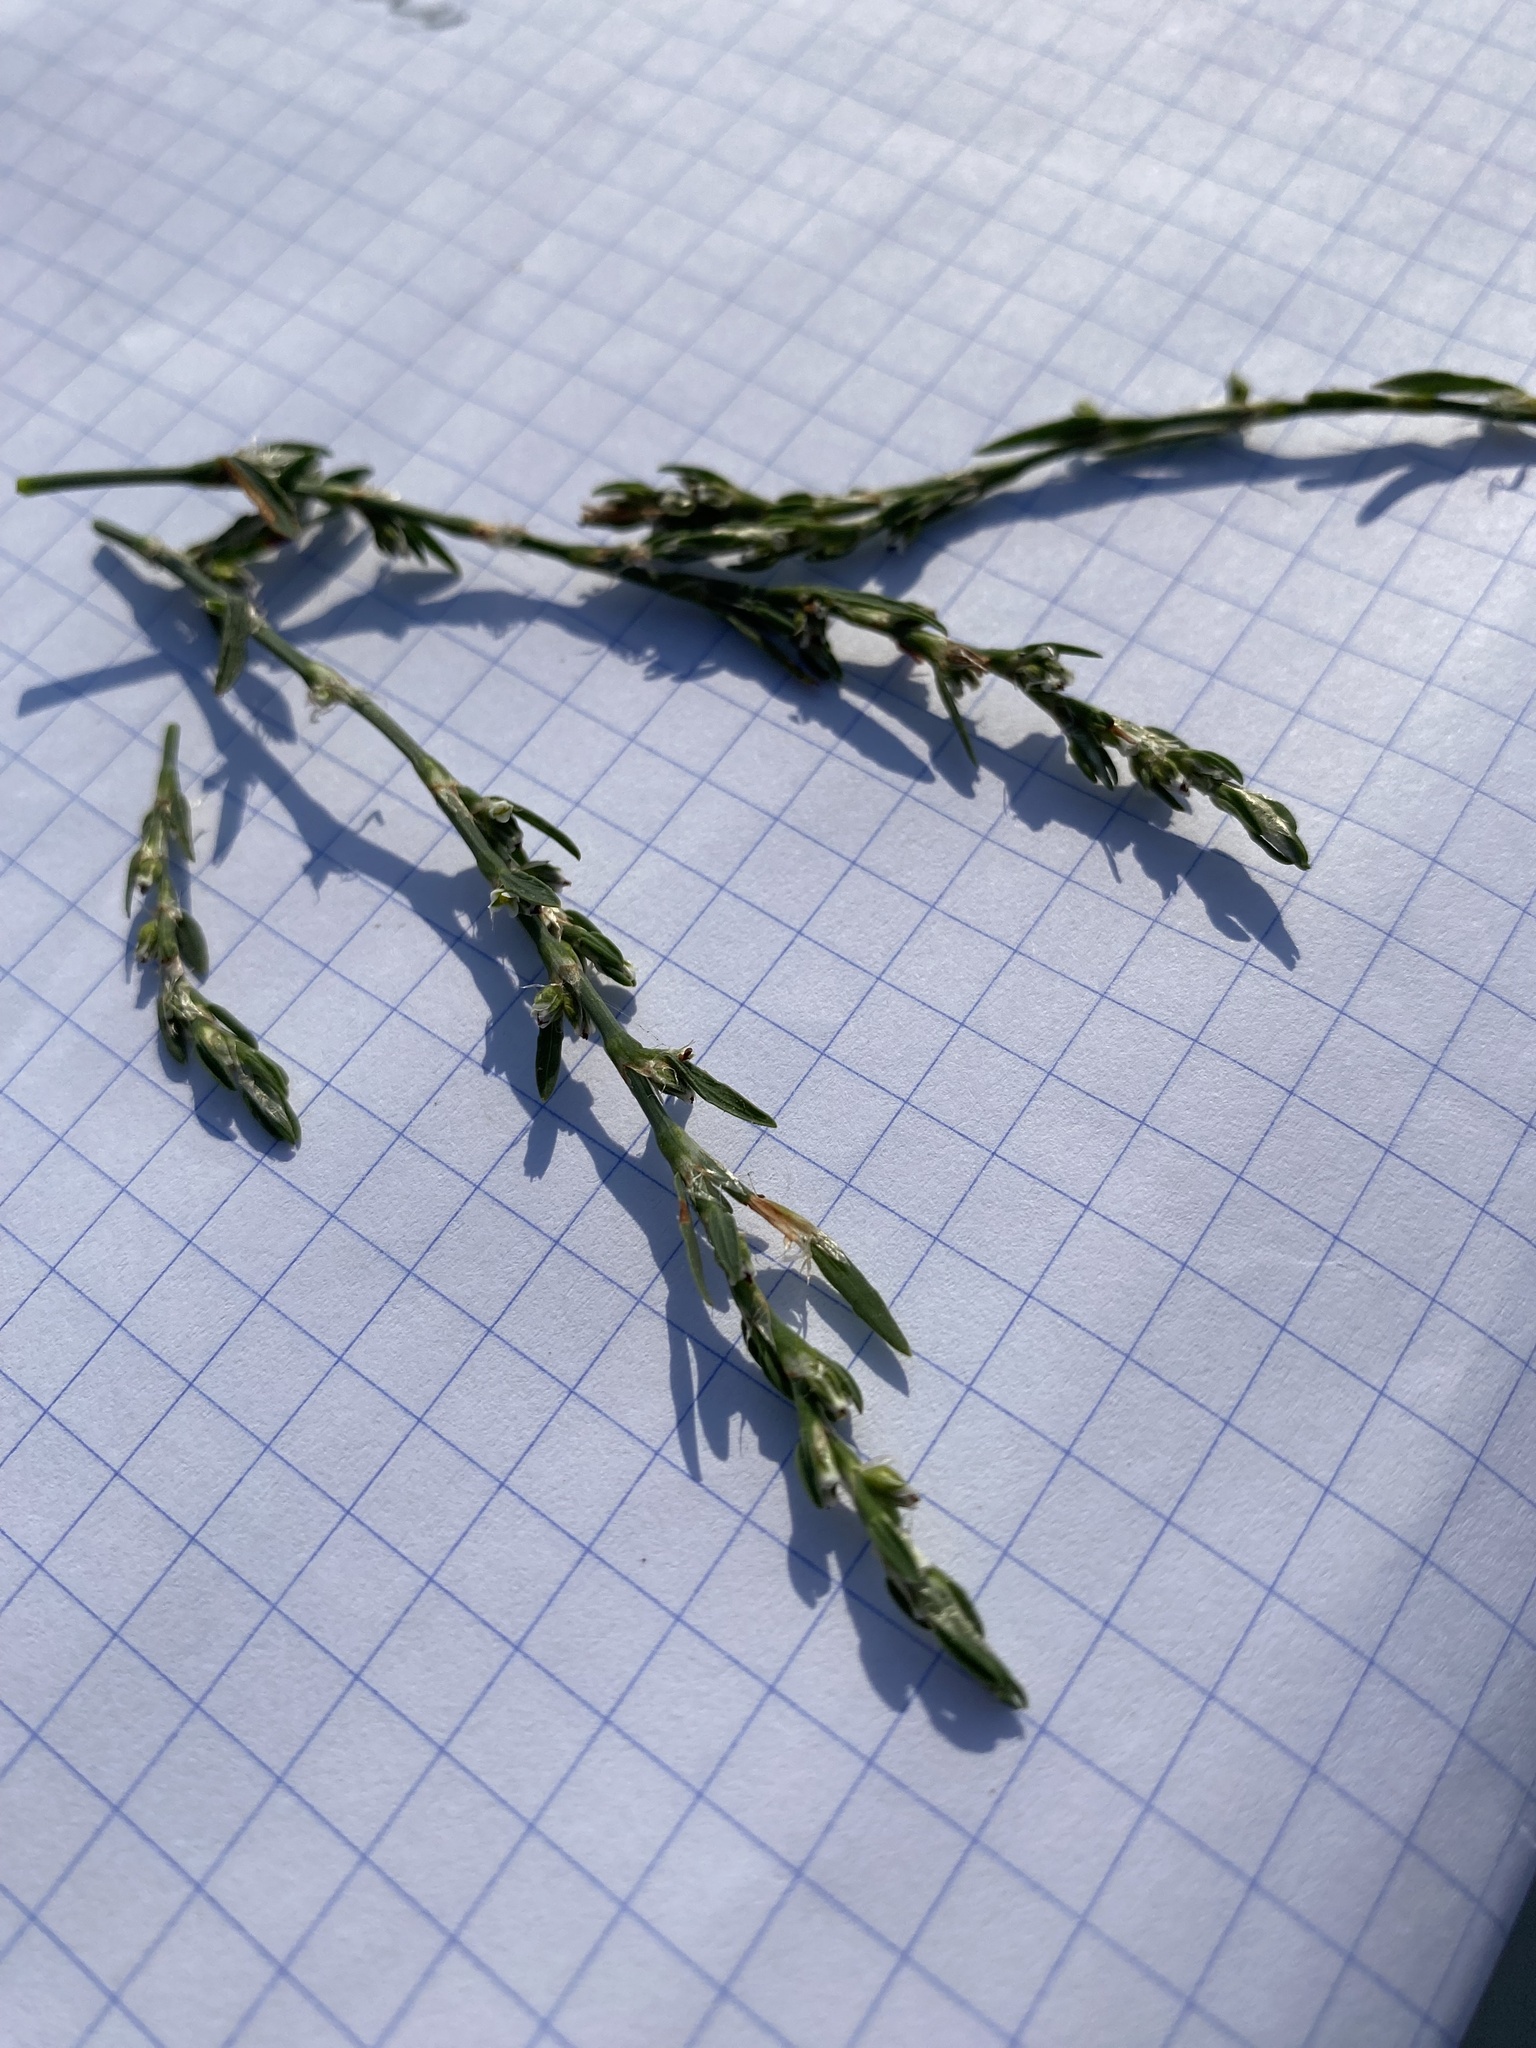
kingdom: Plantae
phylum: Tracheophyta
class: Magnoliopsida
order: Caryophyllales
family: Polygonaceae
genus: Polygonum
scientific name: Polygonum
